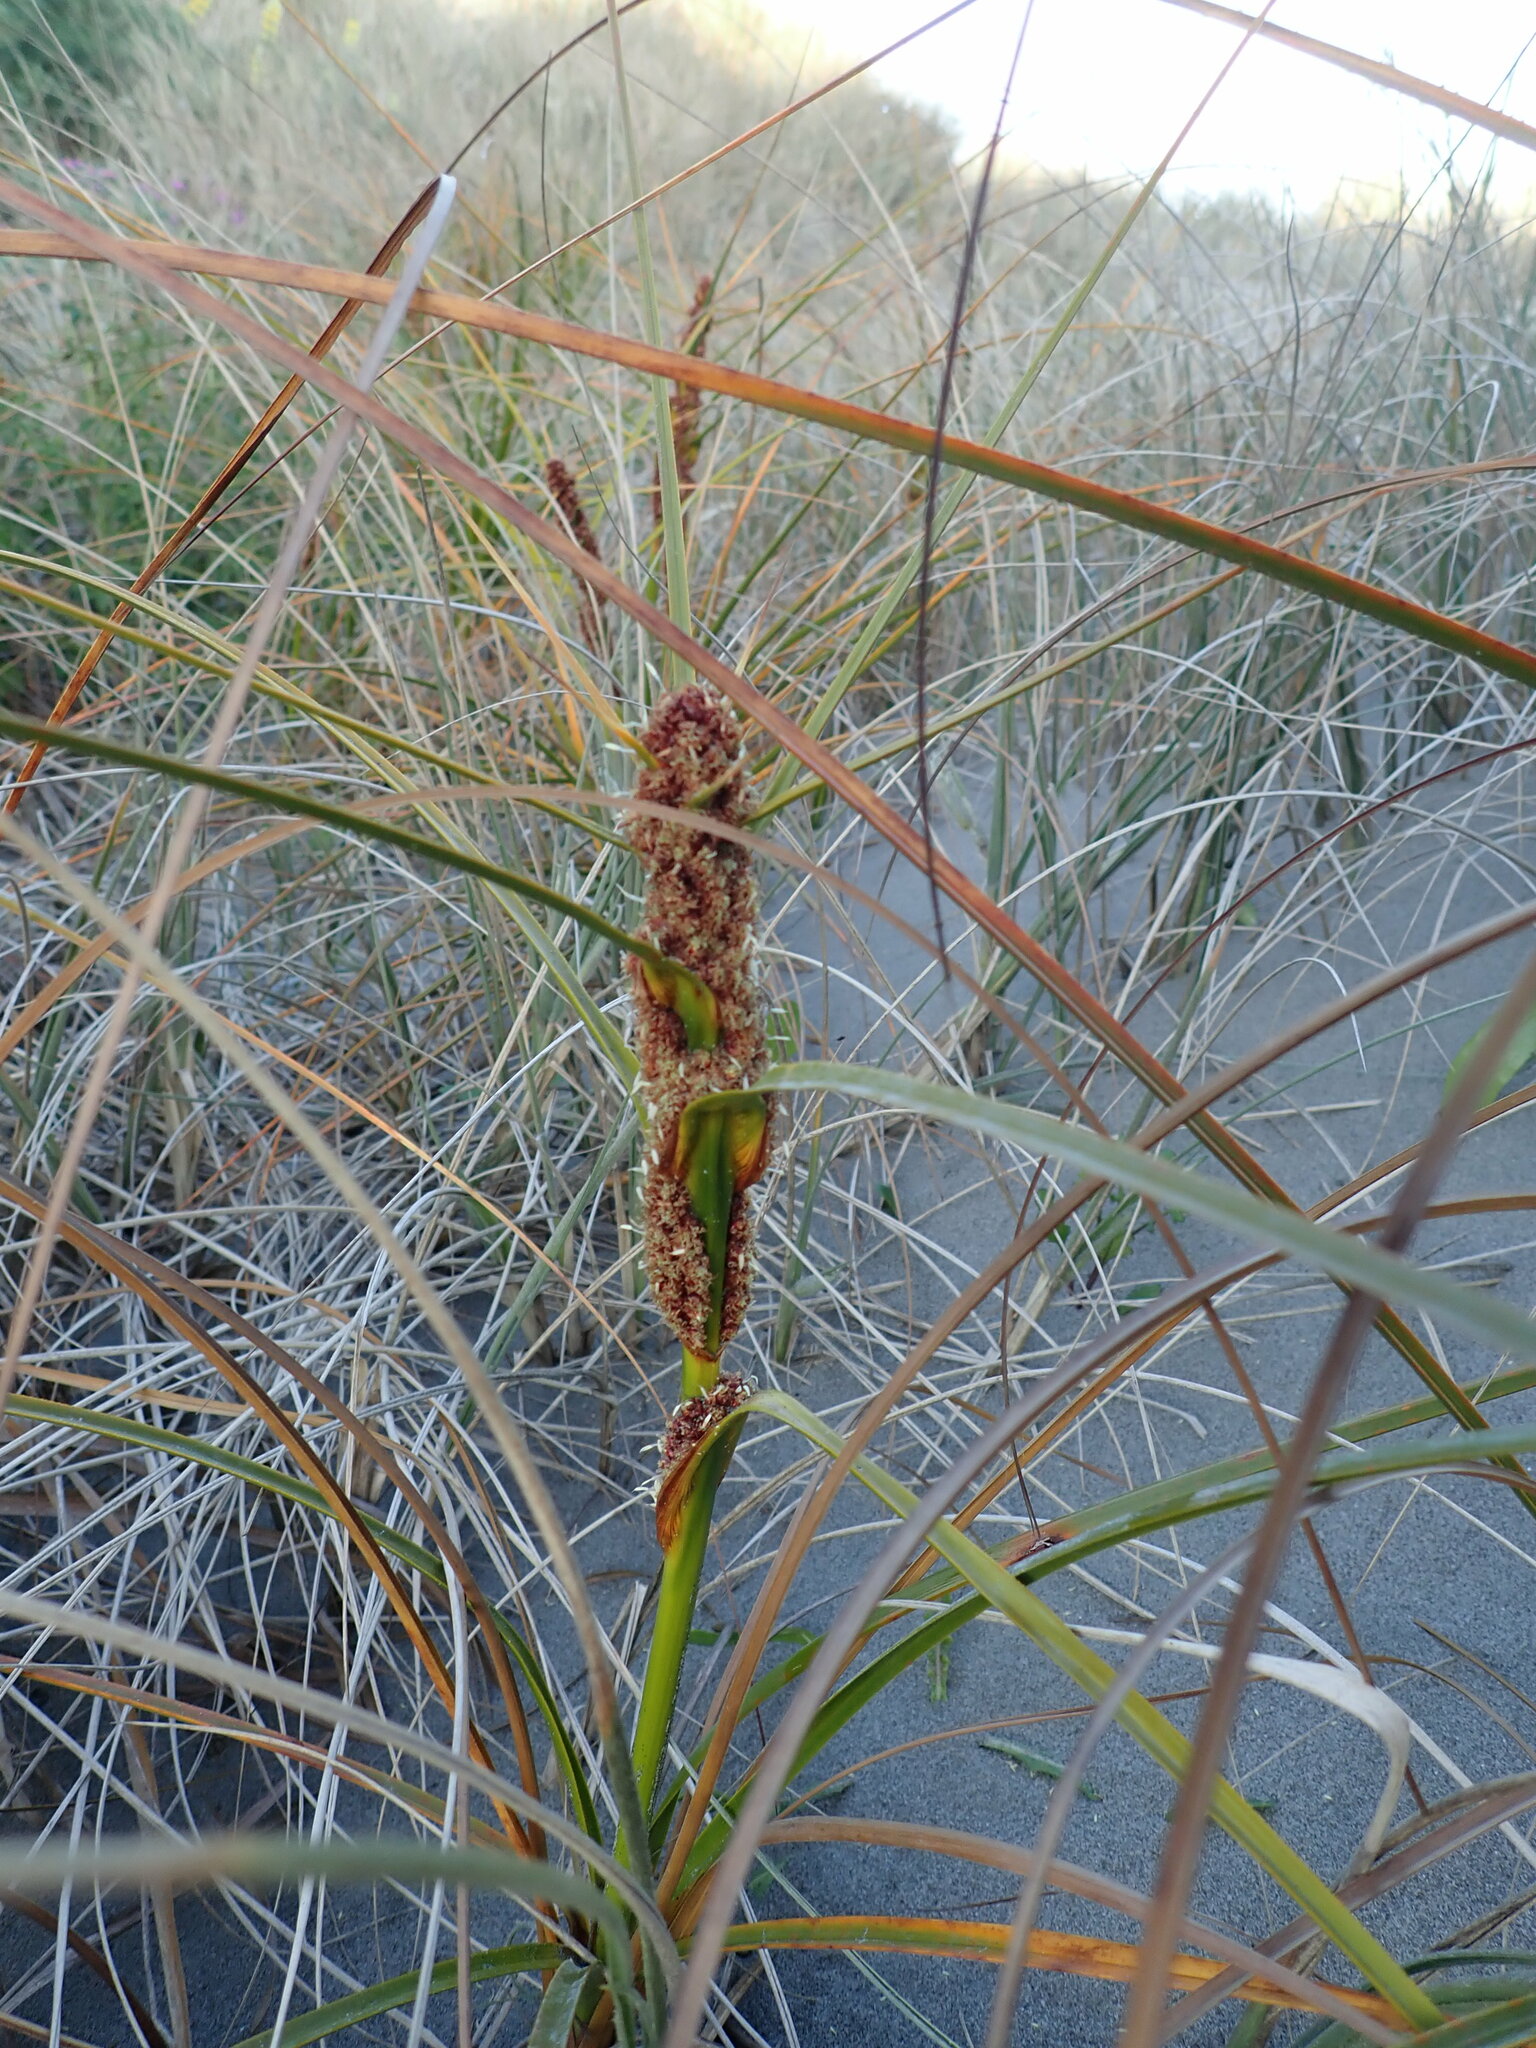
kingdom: Plantae
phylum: Tracheophyta
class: Liliopsida
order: Poales
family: Cyperaceae
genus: Ficinia
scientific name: Ficinia spiralis
